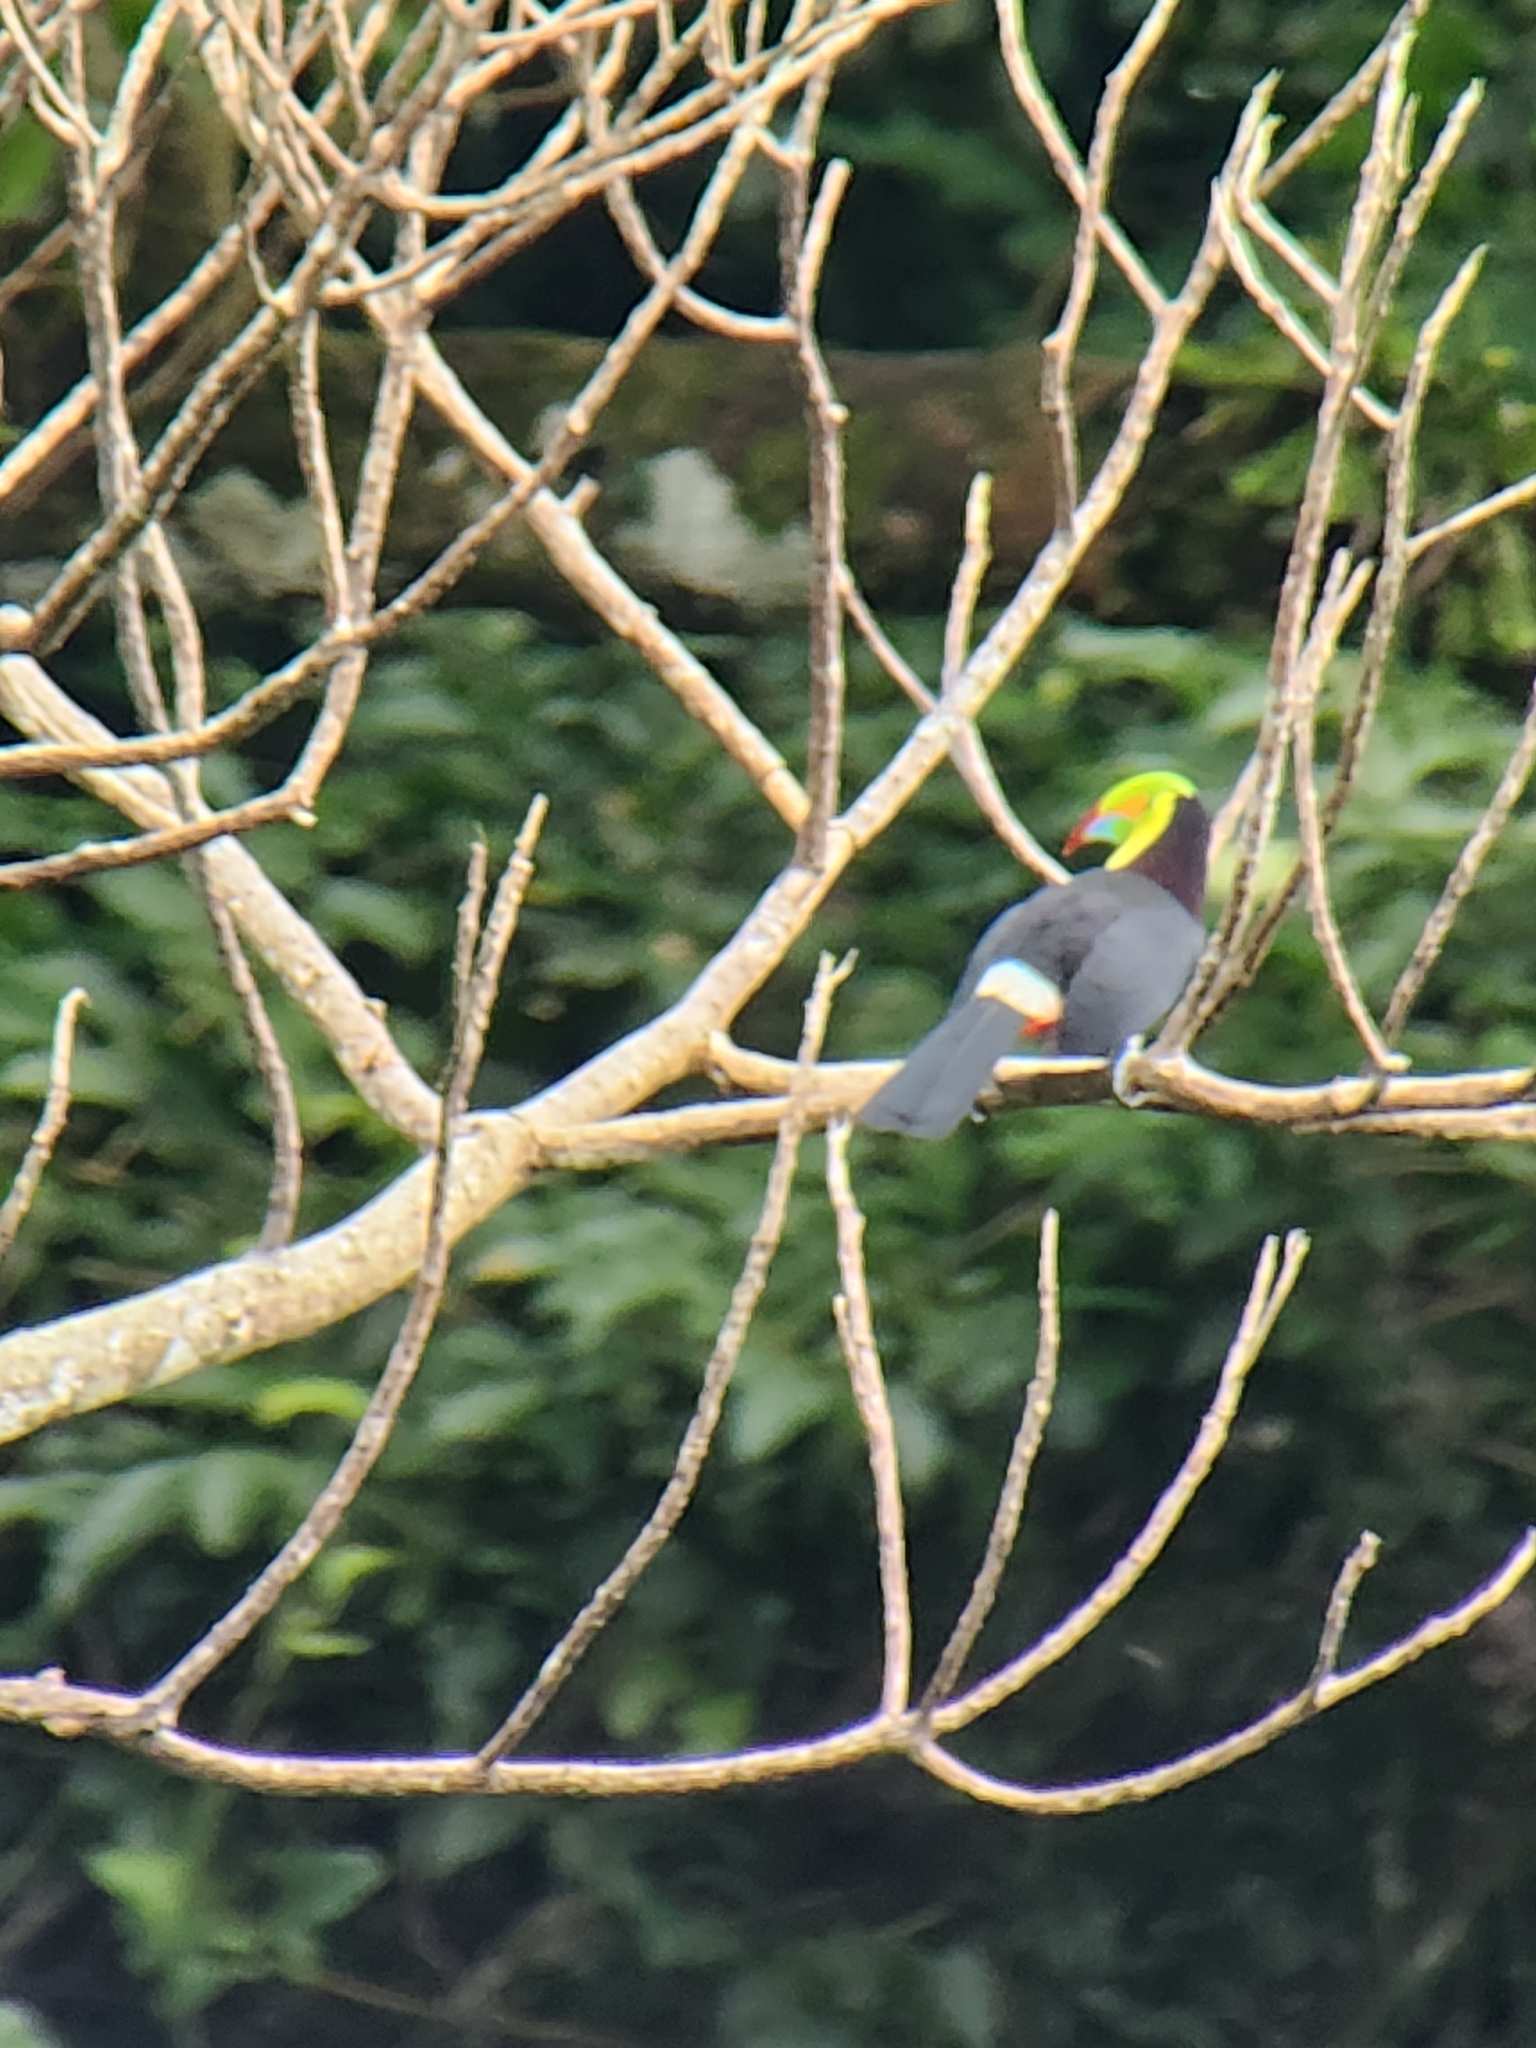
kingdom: Animalia
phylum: Chordata
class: Aves
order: Piciformes
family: Ramphastidae
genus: Ramphastos
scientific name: Ramphastos sulfuratus
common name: Keel-billed toucan
